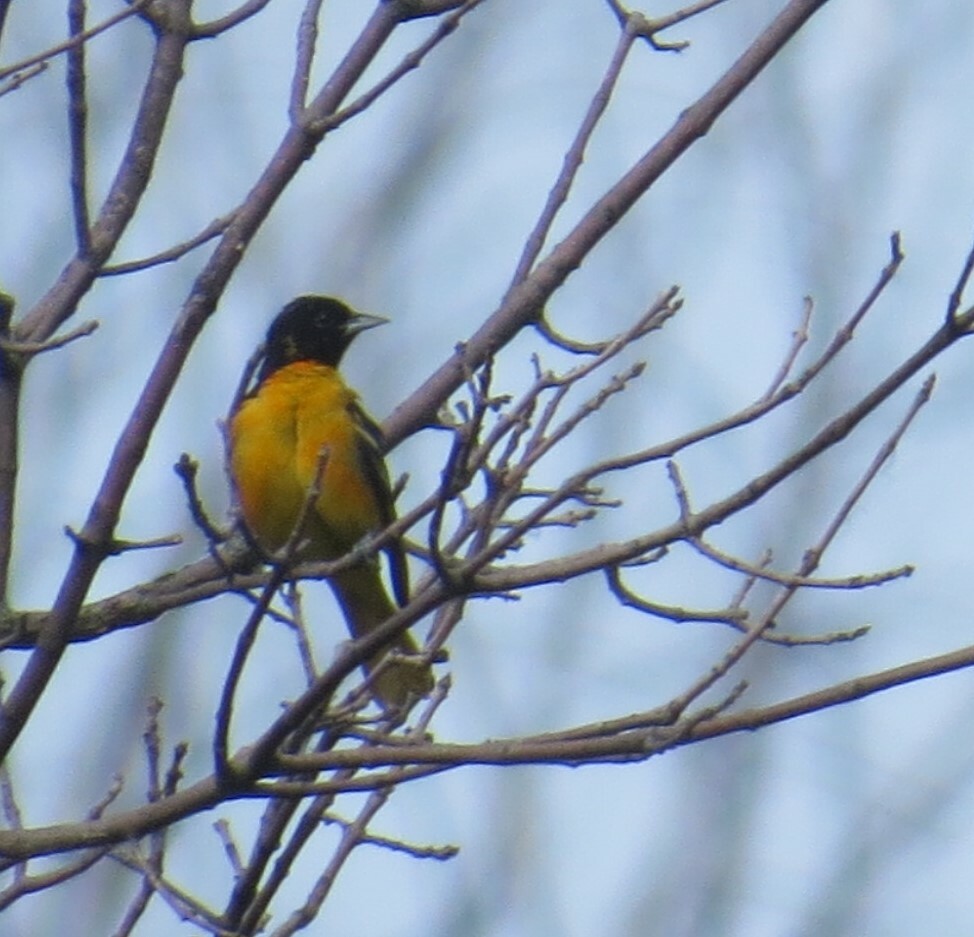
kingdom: Animalia
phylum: Chordata
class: Aves
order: Passeriformes
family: Icteridae
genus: Icterus
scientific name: Icterus galbula
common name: Baltimore oriole
